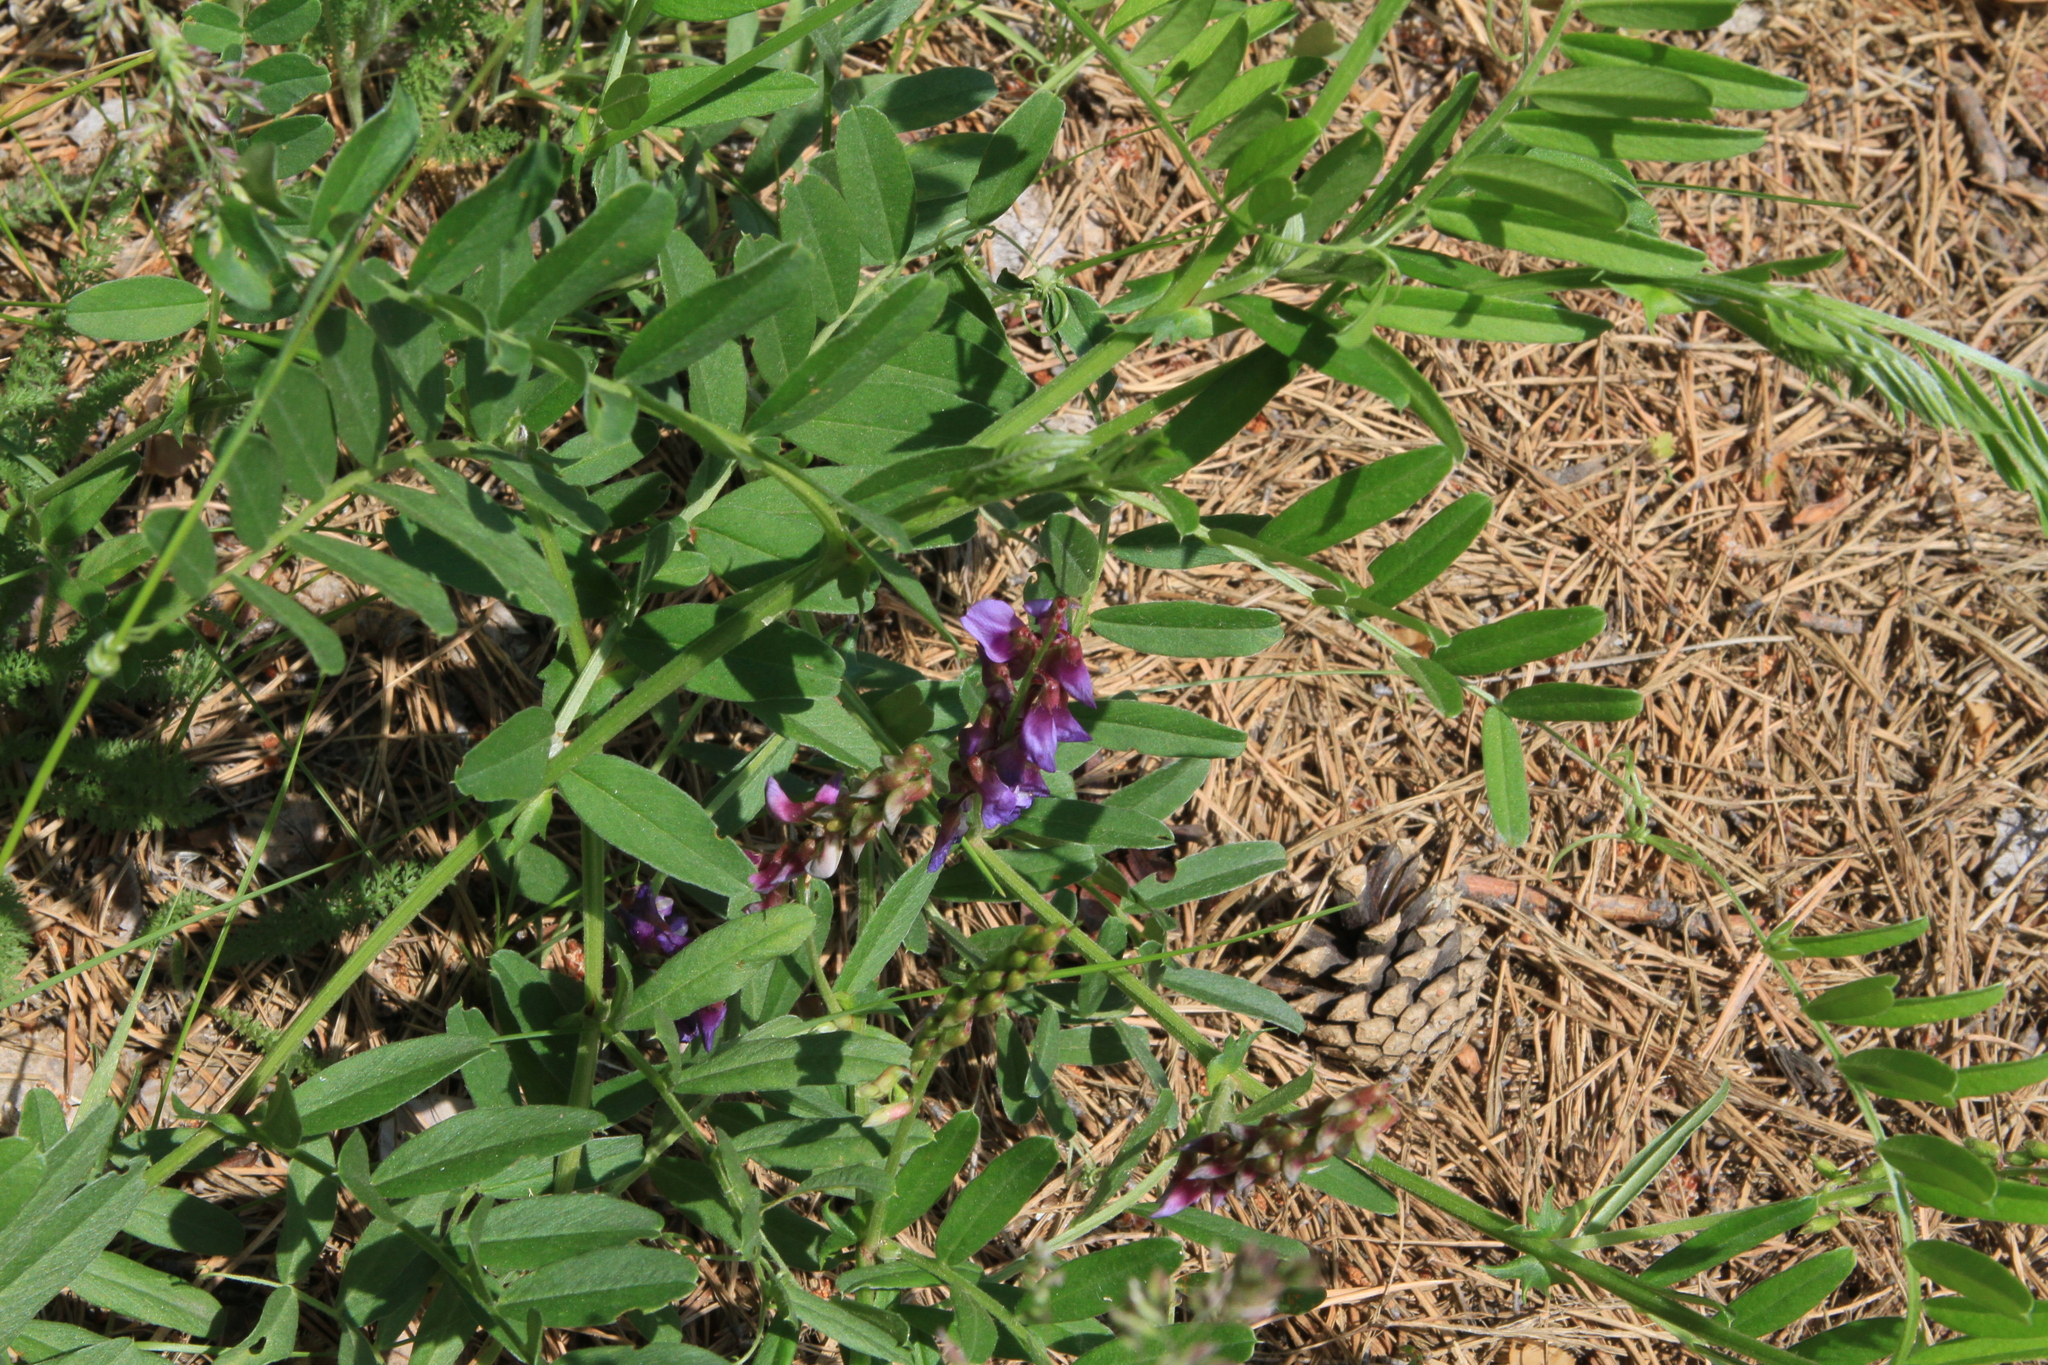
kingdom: Plantae
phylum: Tracheophyta
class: Magnoliopsida
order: Fabales
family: Fabaceae
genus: Vicia
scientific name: Vicia amoena
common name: Cheder ebs
